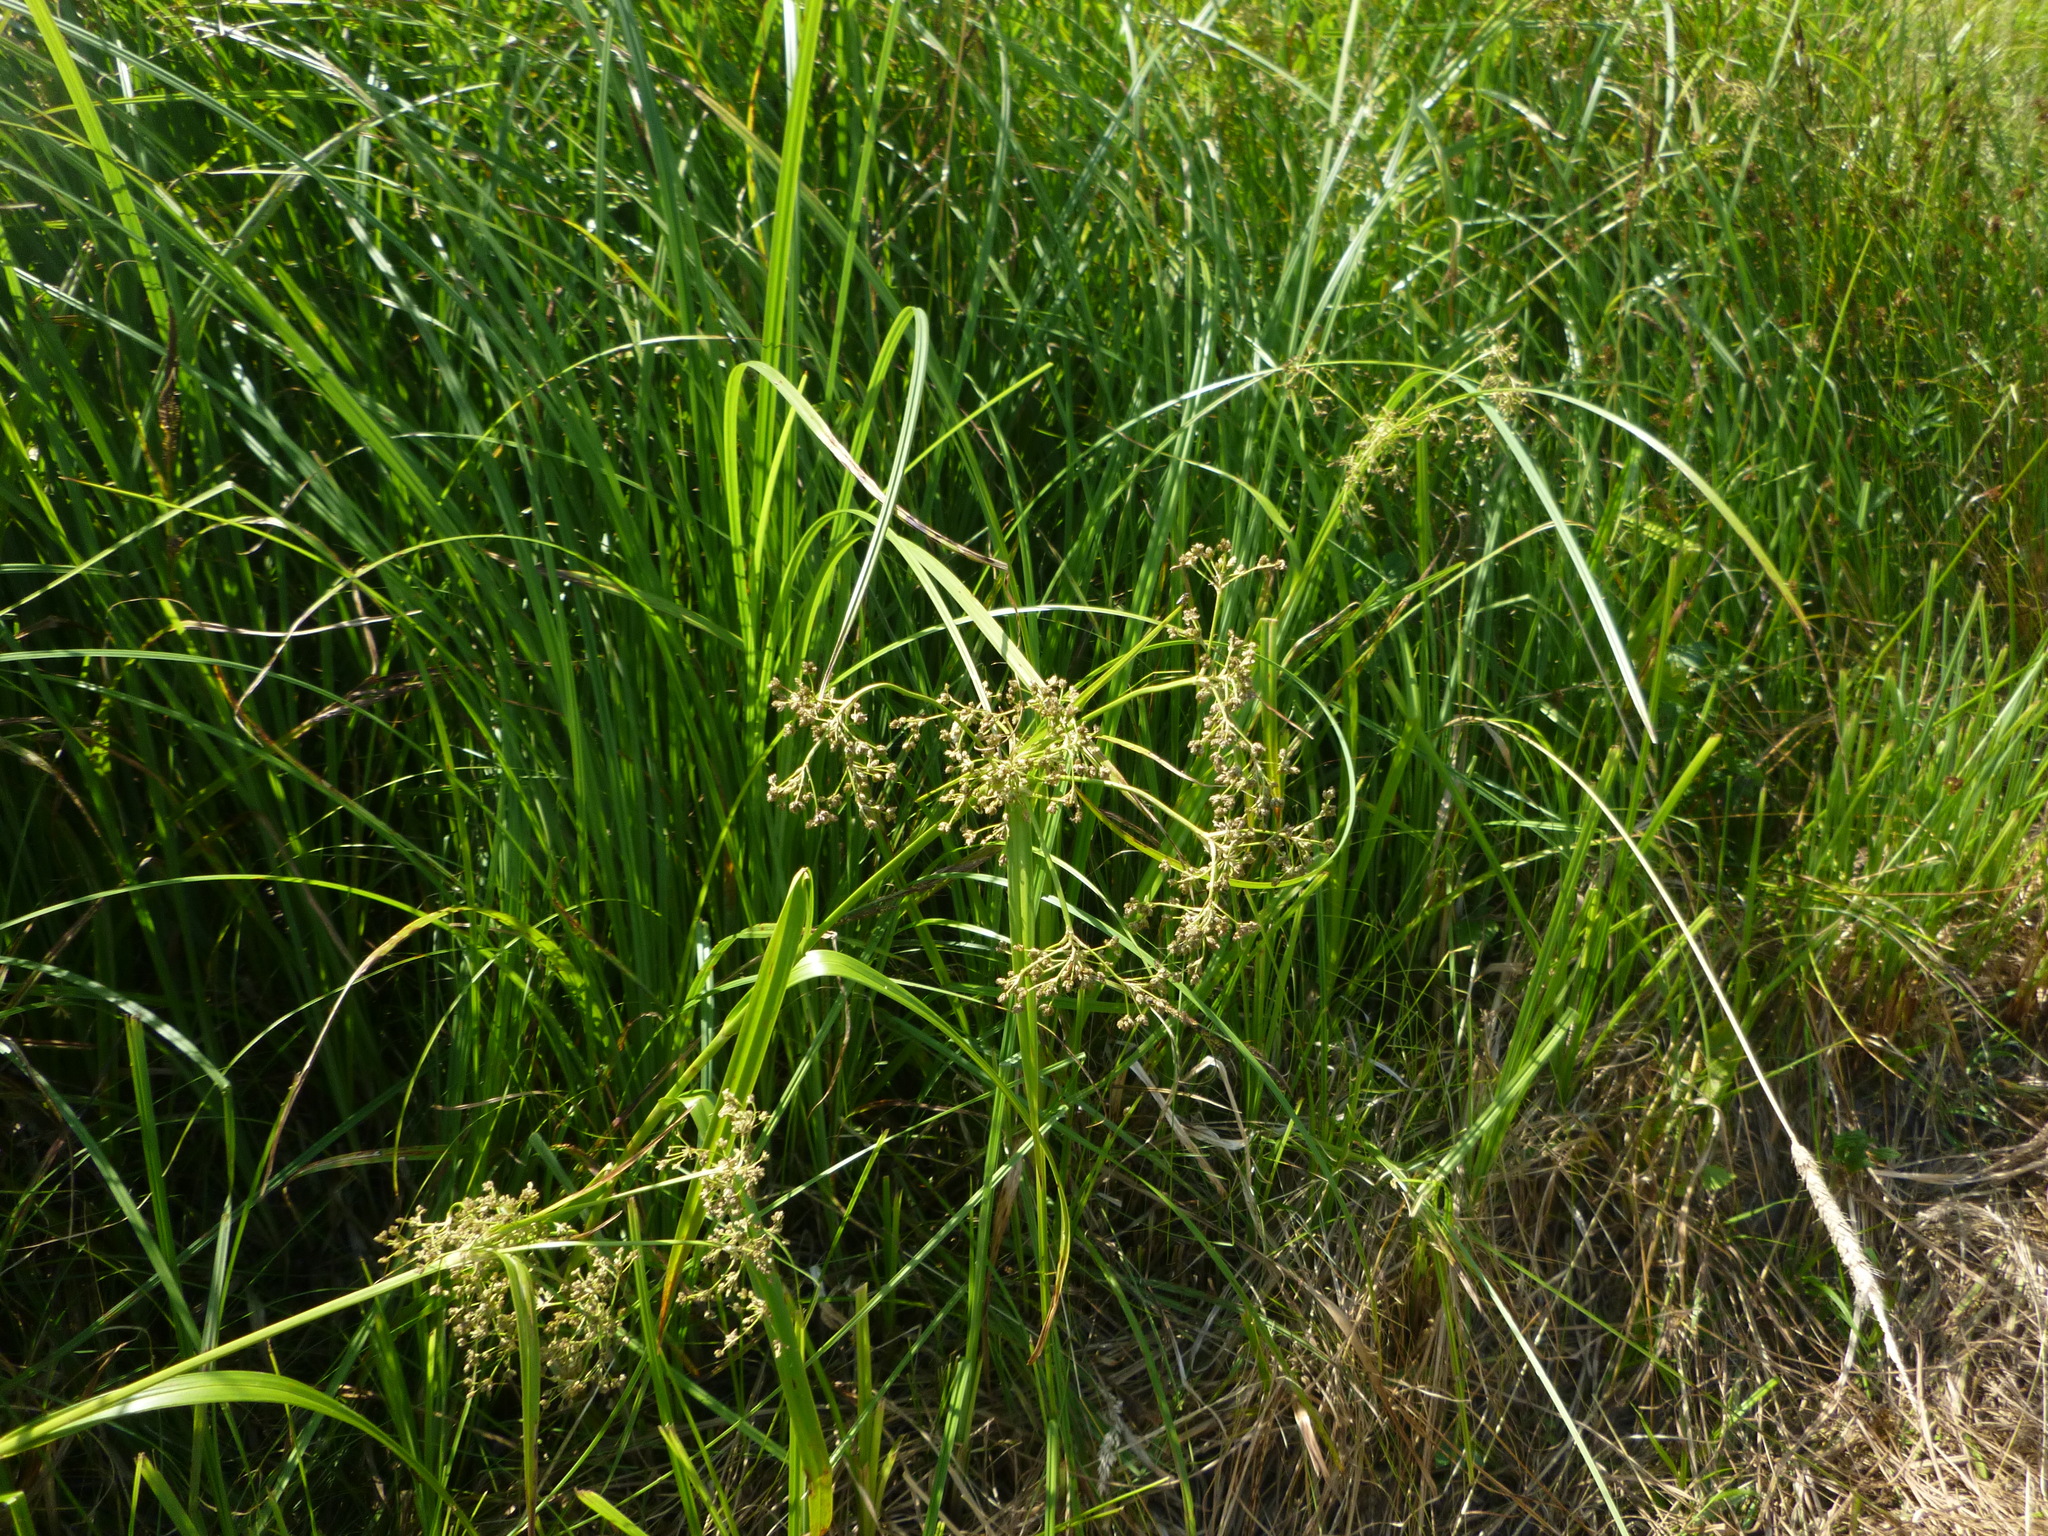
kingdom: Plantae
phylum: Tracheophyta
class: Liliopsida
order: Poales
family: Cyperaceae
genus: Scirpus
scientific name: Scirpus sylvaticus
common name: Wood club-rush
